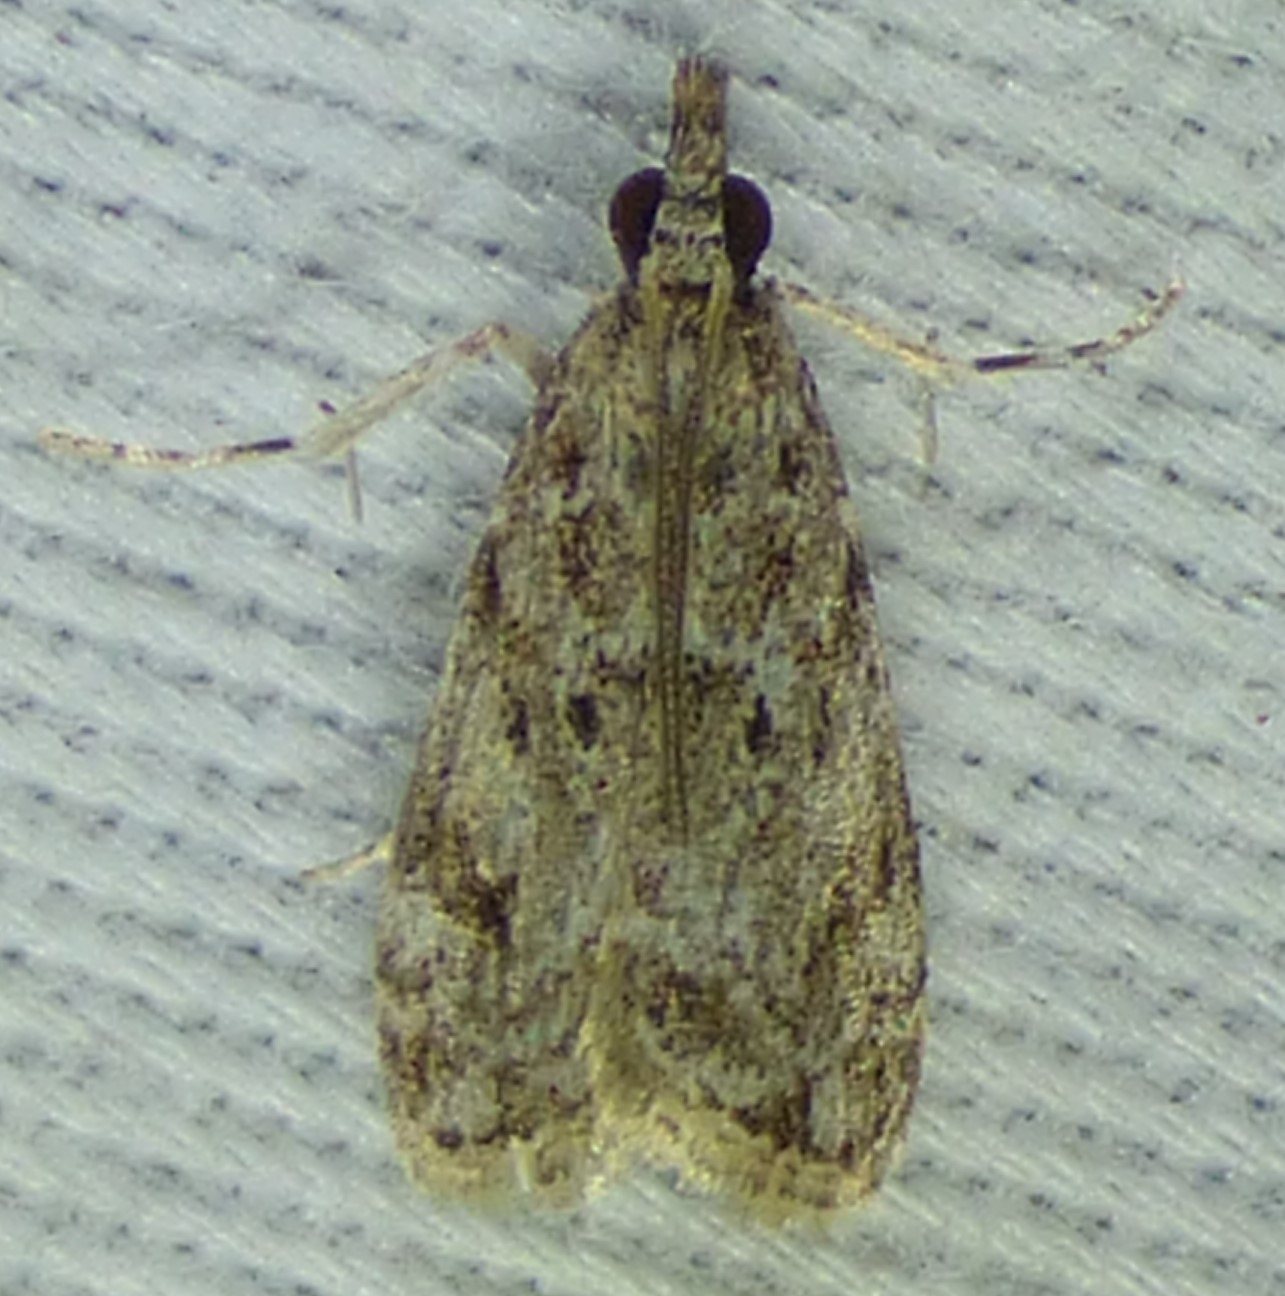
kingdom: Animalia
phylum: Arthropoda
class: Insecta
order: Lepidoptera
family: Crambidae
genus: Eudonia
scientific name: Eudonia heterosalis
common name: Mcdunnough's eudonia
